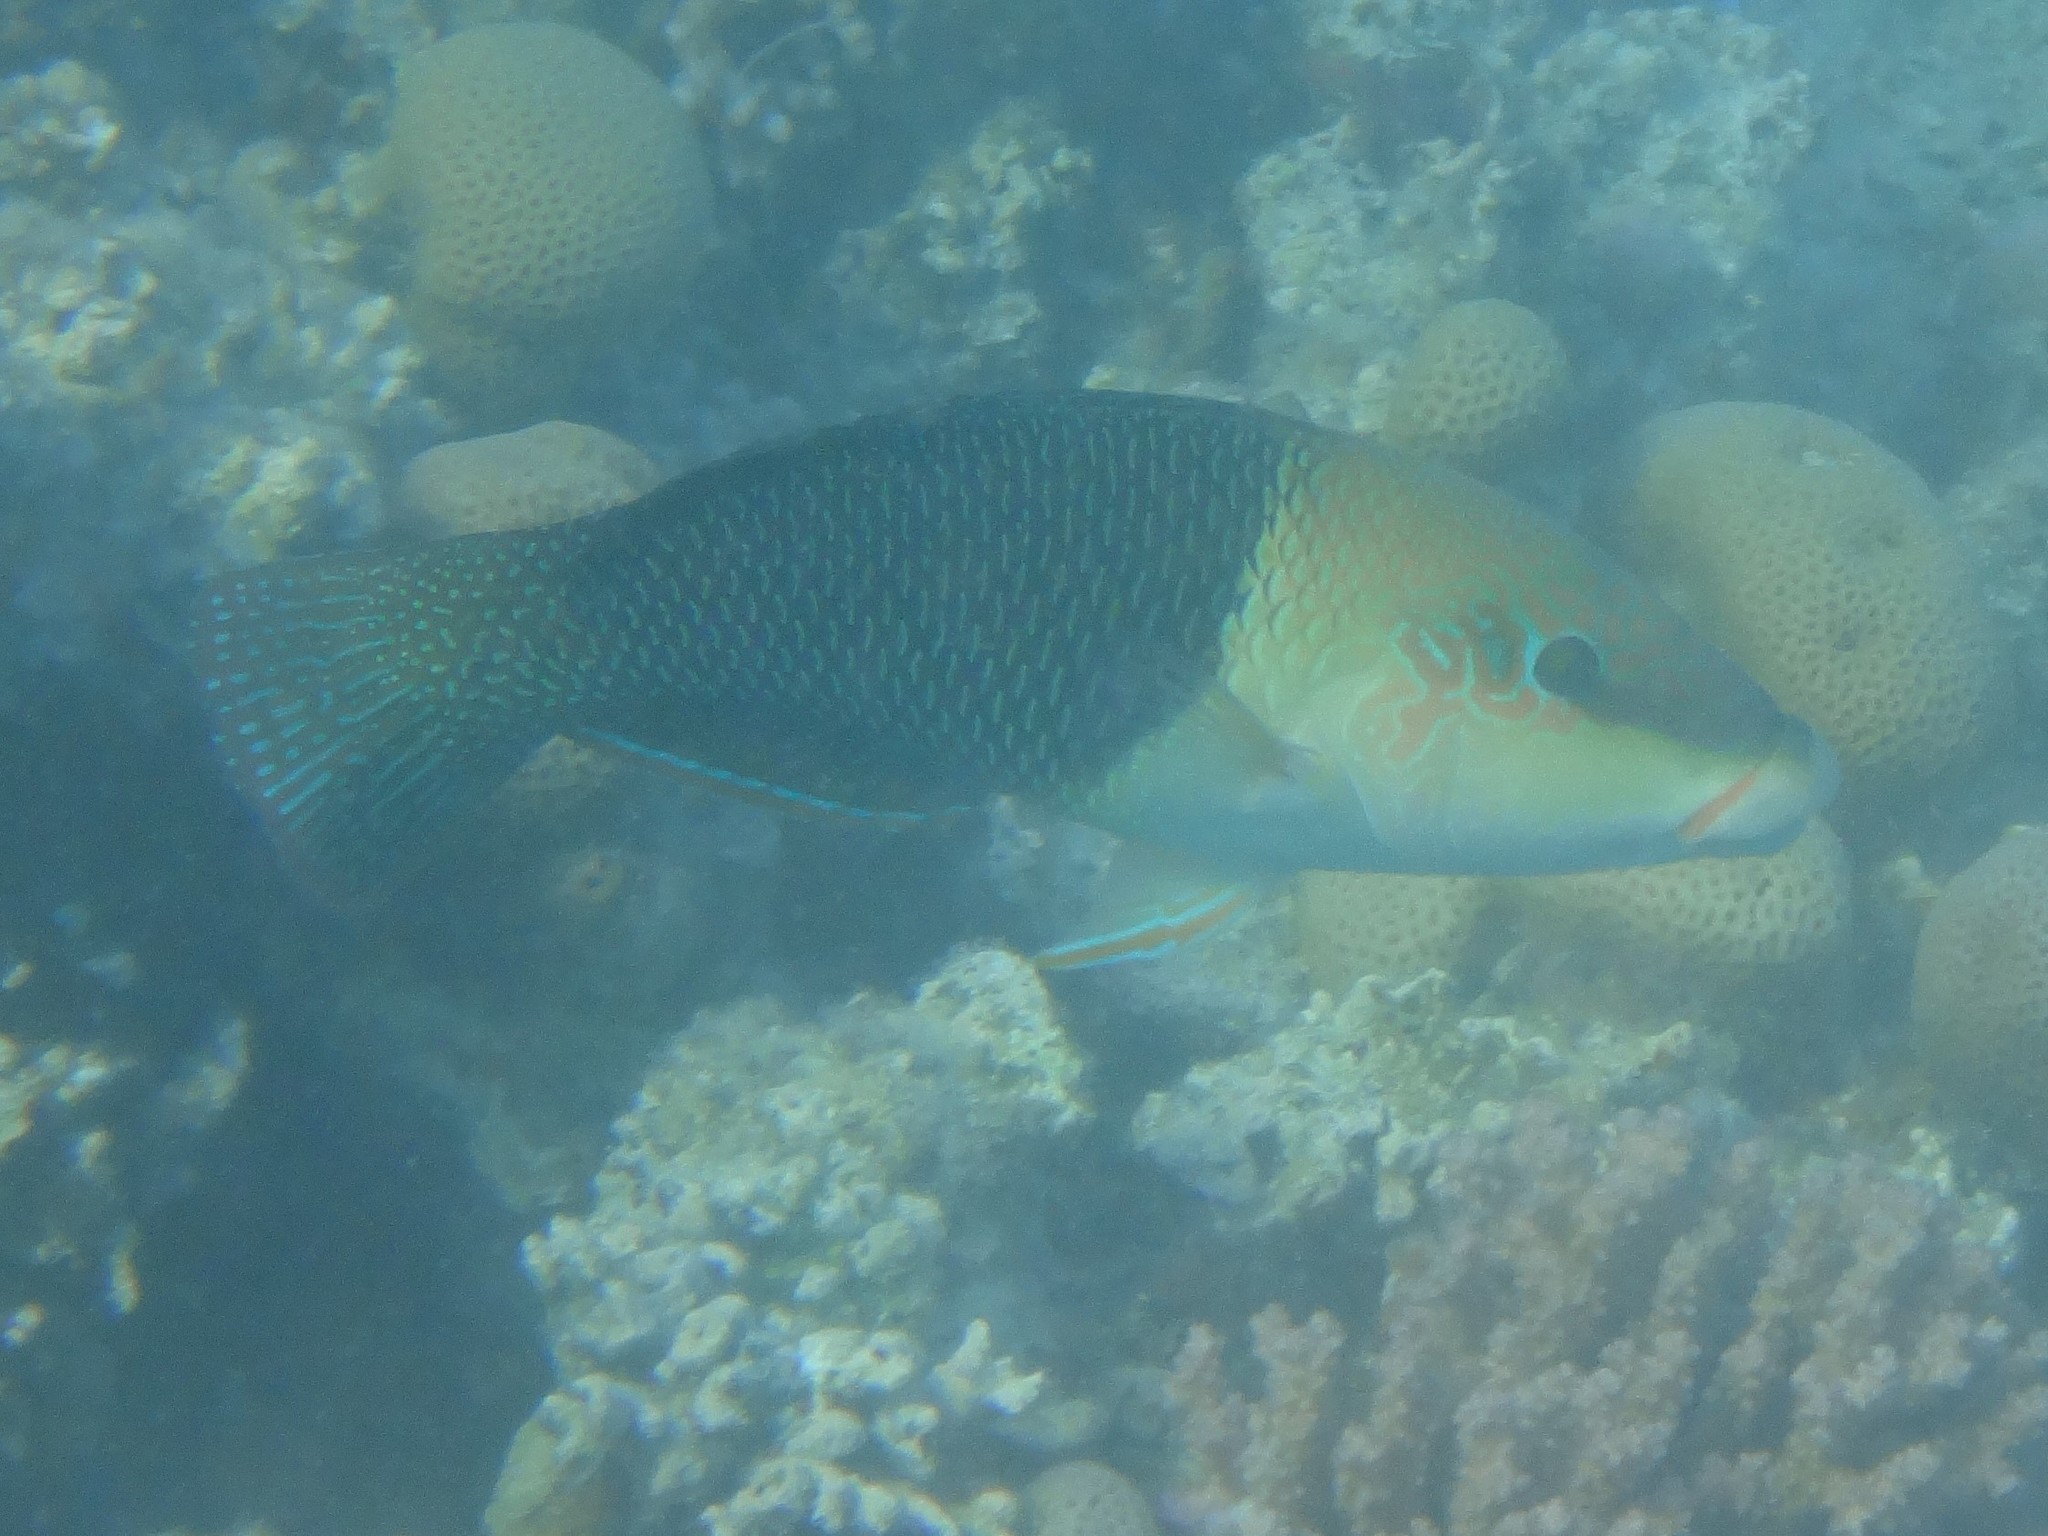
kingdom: Animalia
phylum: Chordata
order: Perciformes
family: Labridae
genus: Hemigymnus
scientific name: Hemigymnus melapterus
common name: Blackeye thicklip
